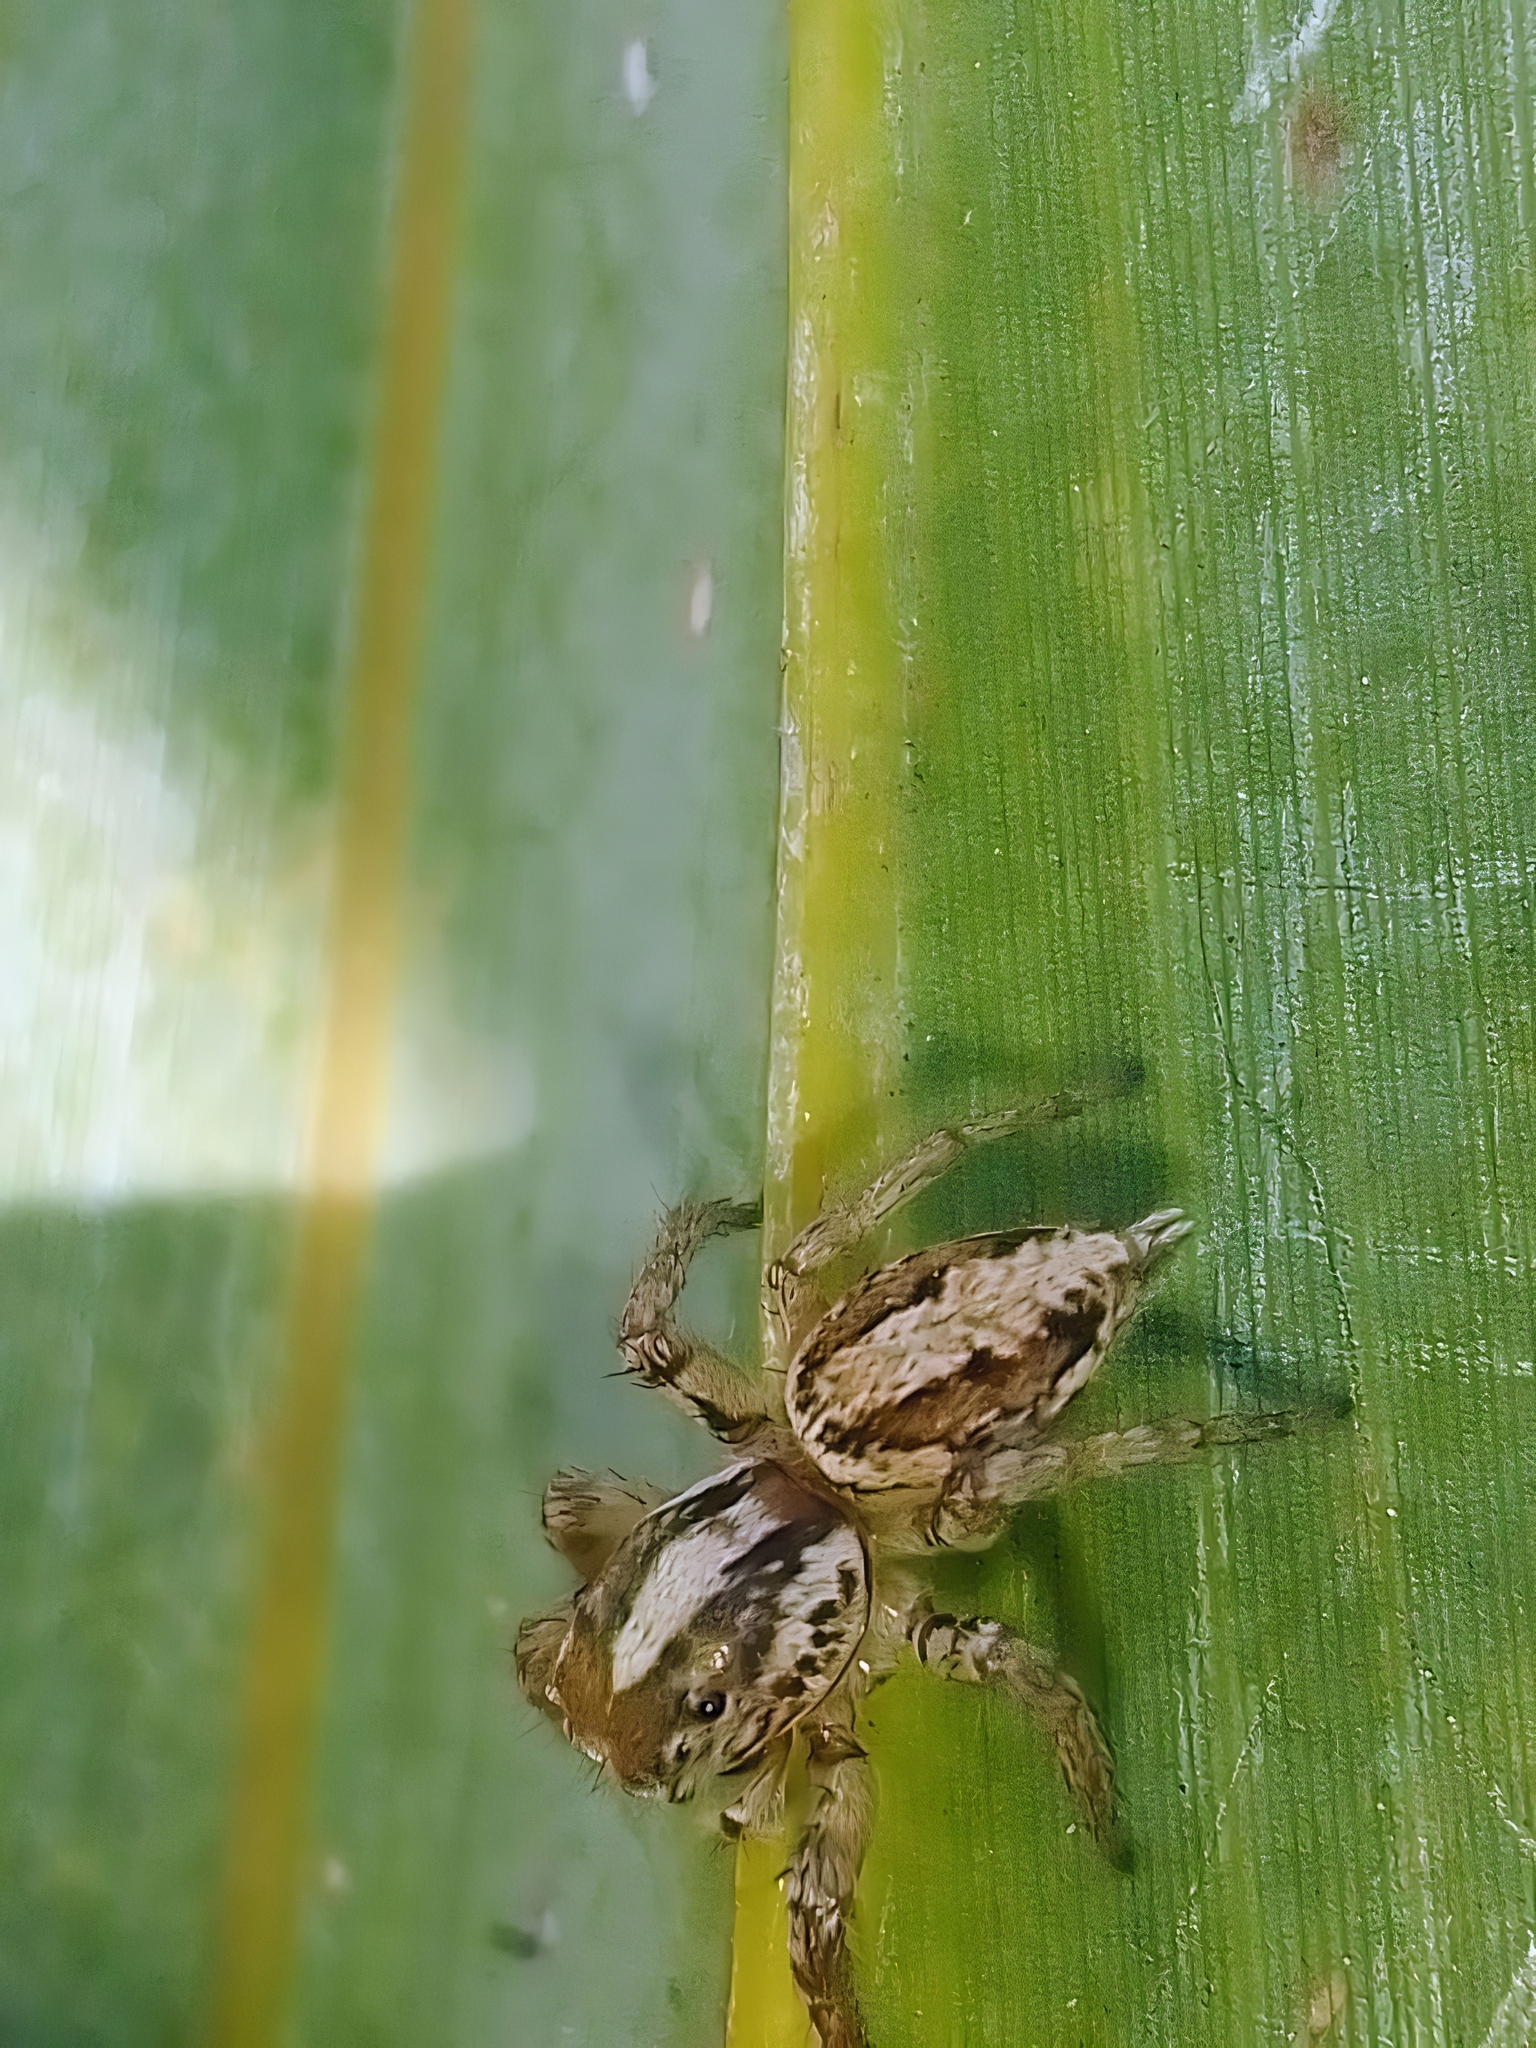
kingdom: Animalia
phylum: Arthropoda
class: Arachnida
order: Araneae
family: Salticidae
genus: Leptofreya
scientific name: Leptofreya ambigua
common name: Jumping spider
